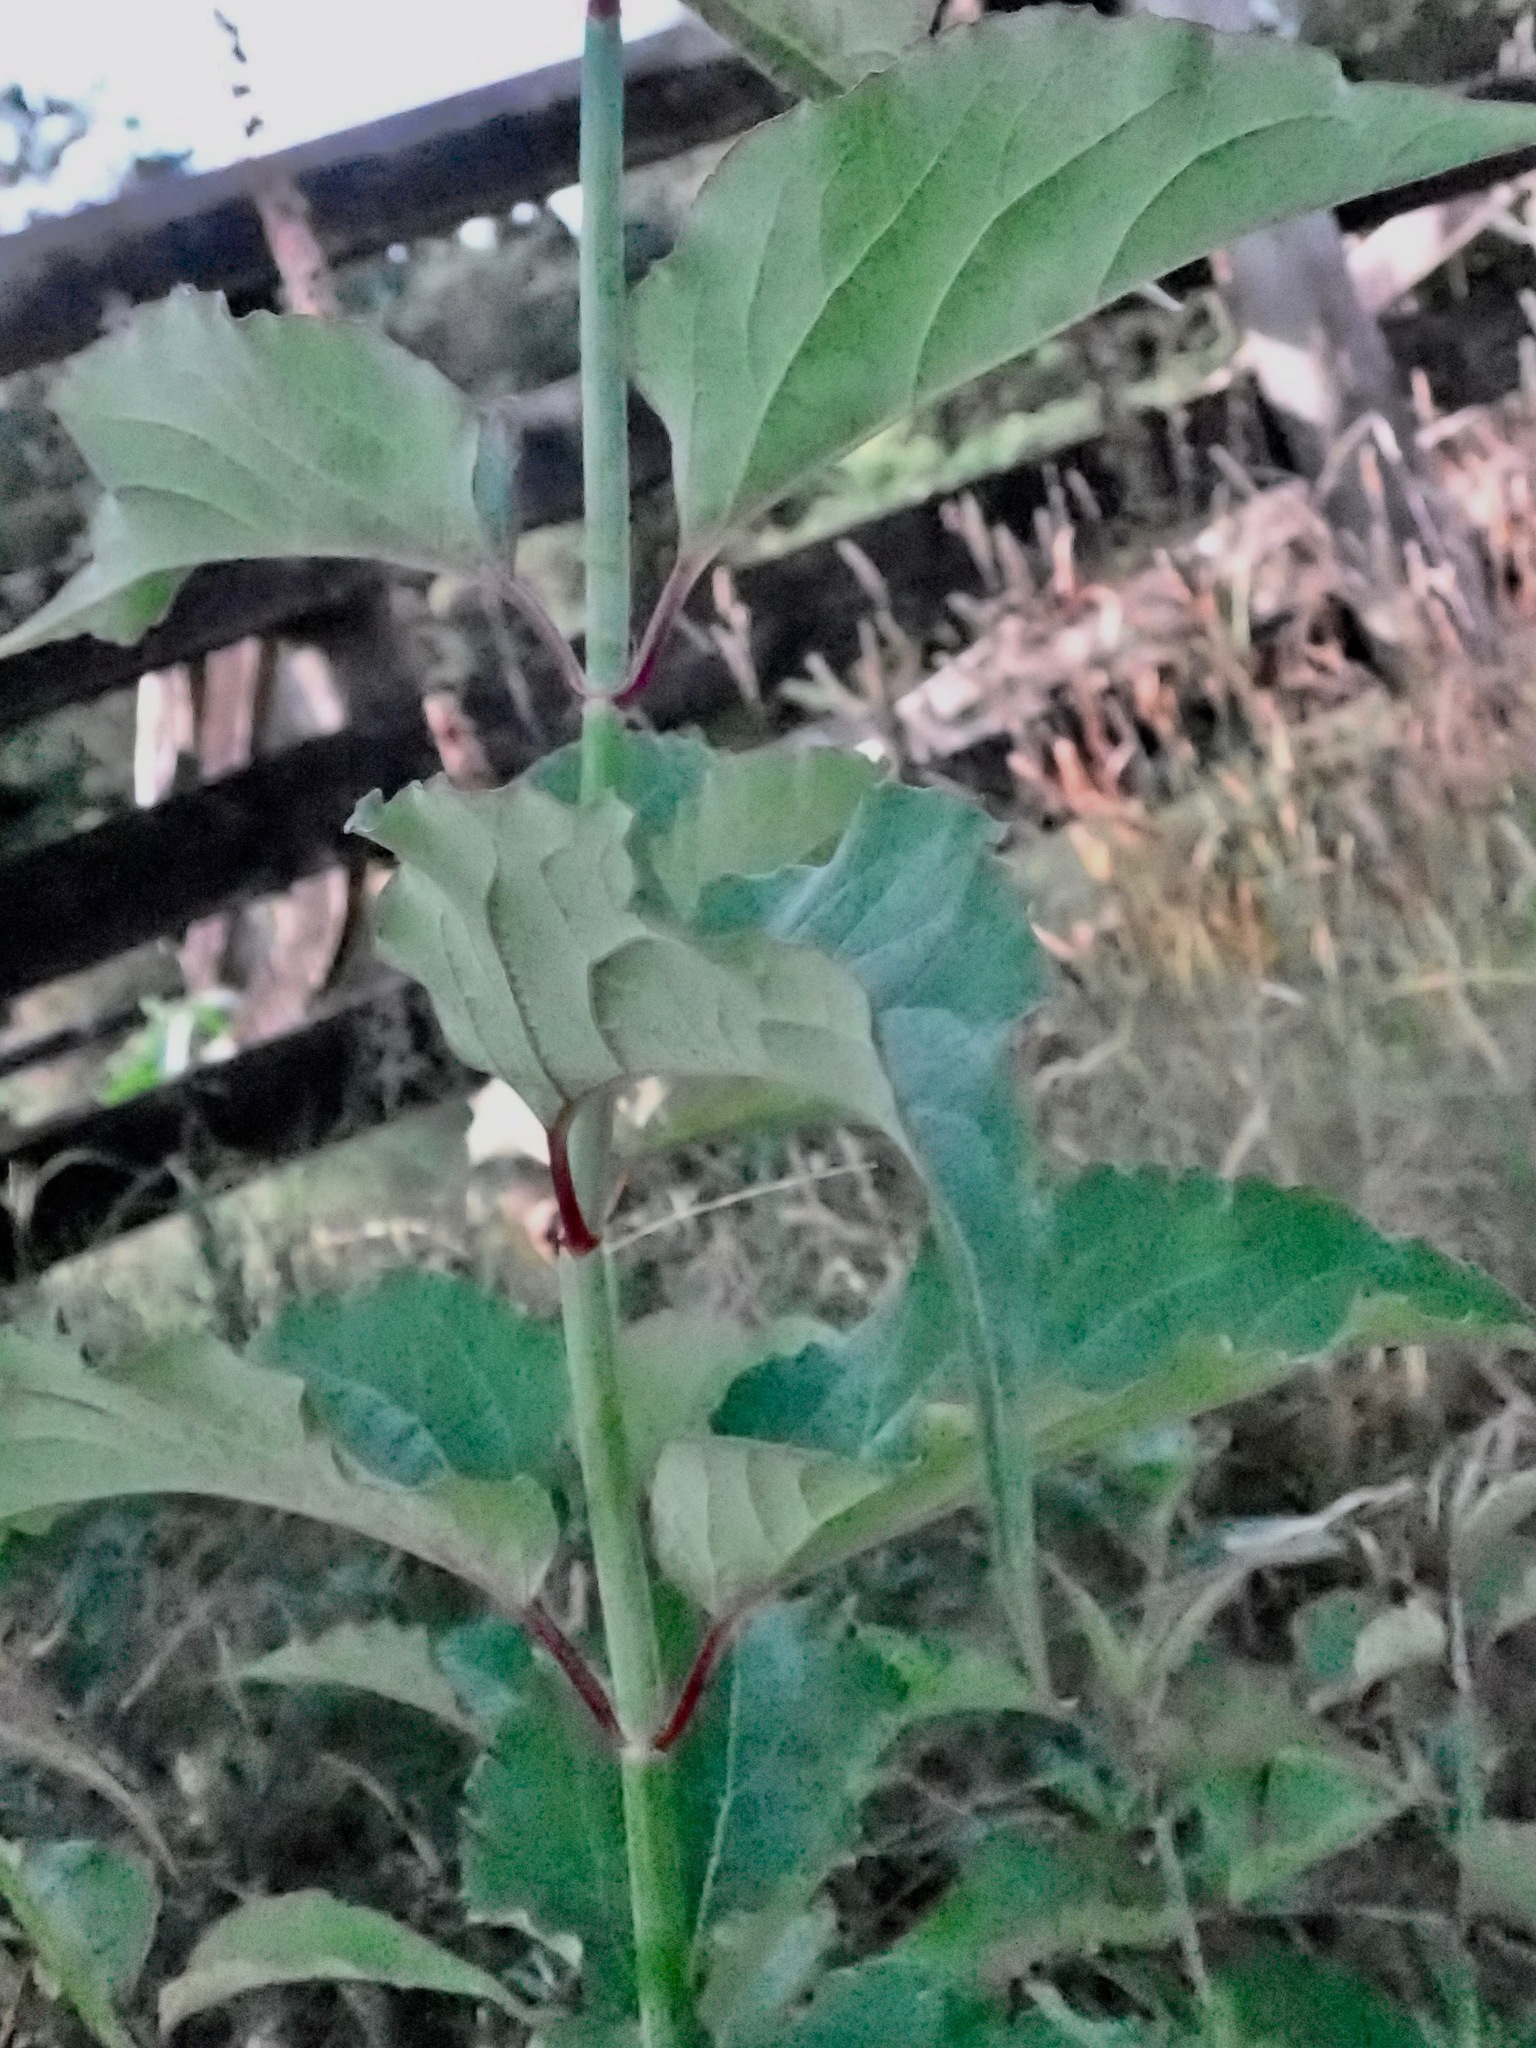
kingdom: Plantae
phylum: Tracheophyta
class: Magnoliopsida
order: Dipsacales
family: Caprifoliaceae
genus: Leycesteria
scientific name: Leycesteria formosa
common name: Himalayan honeysuckle
